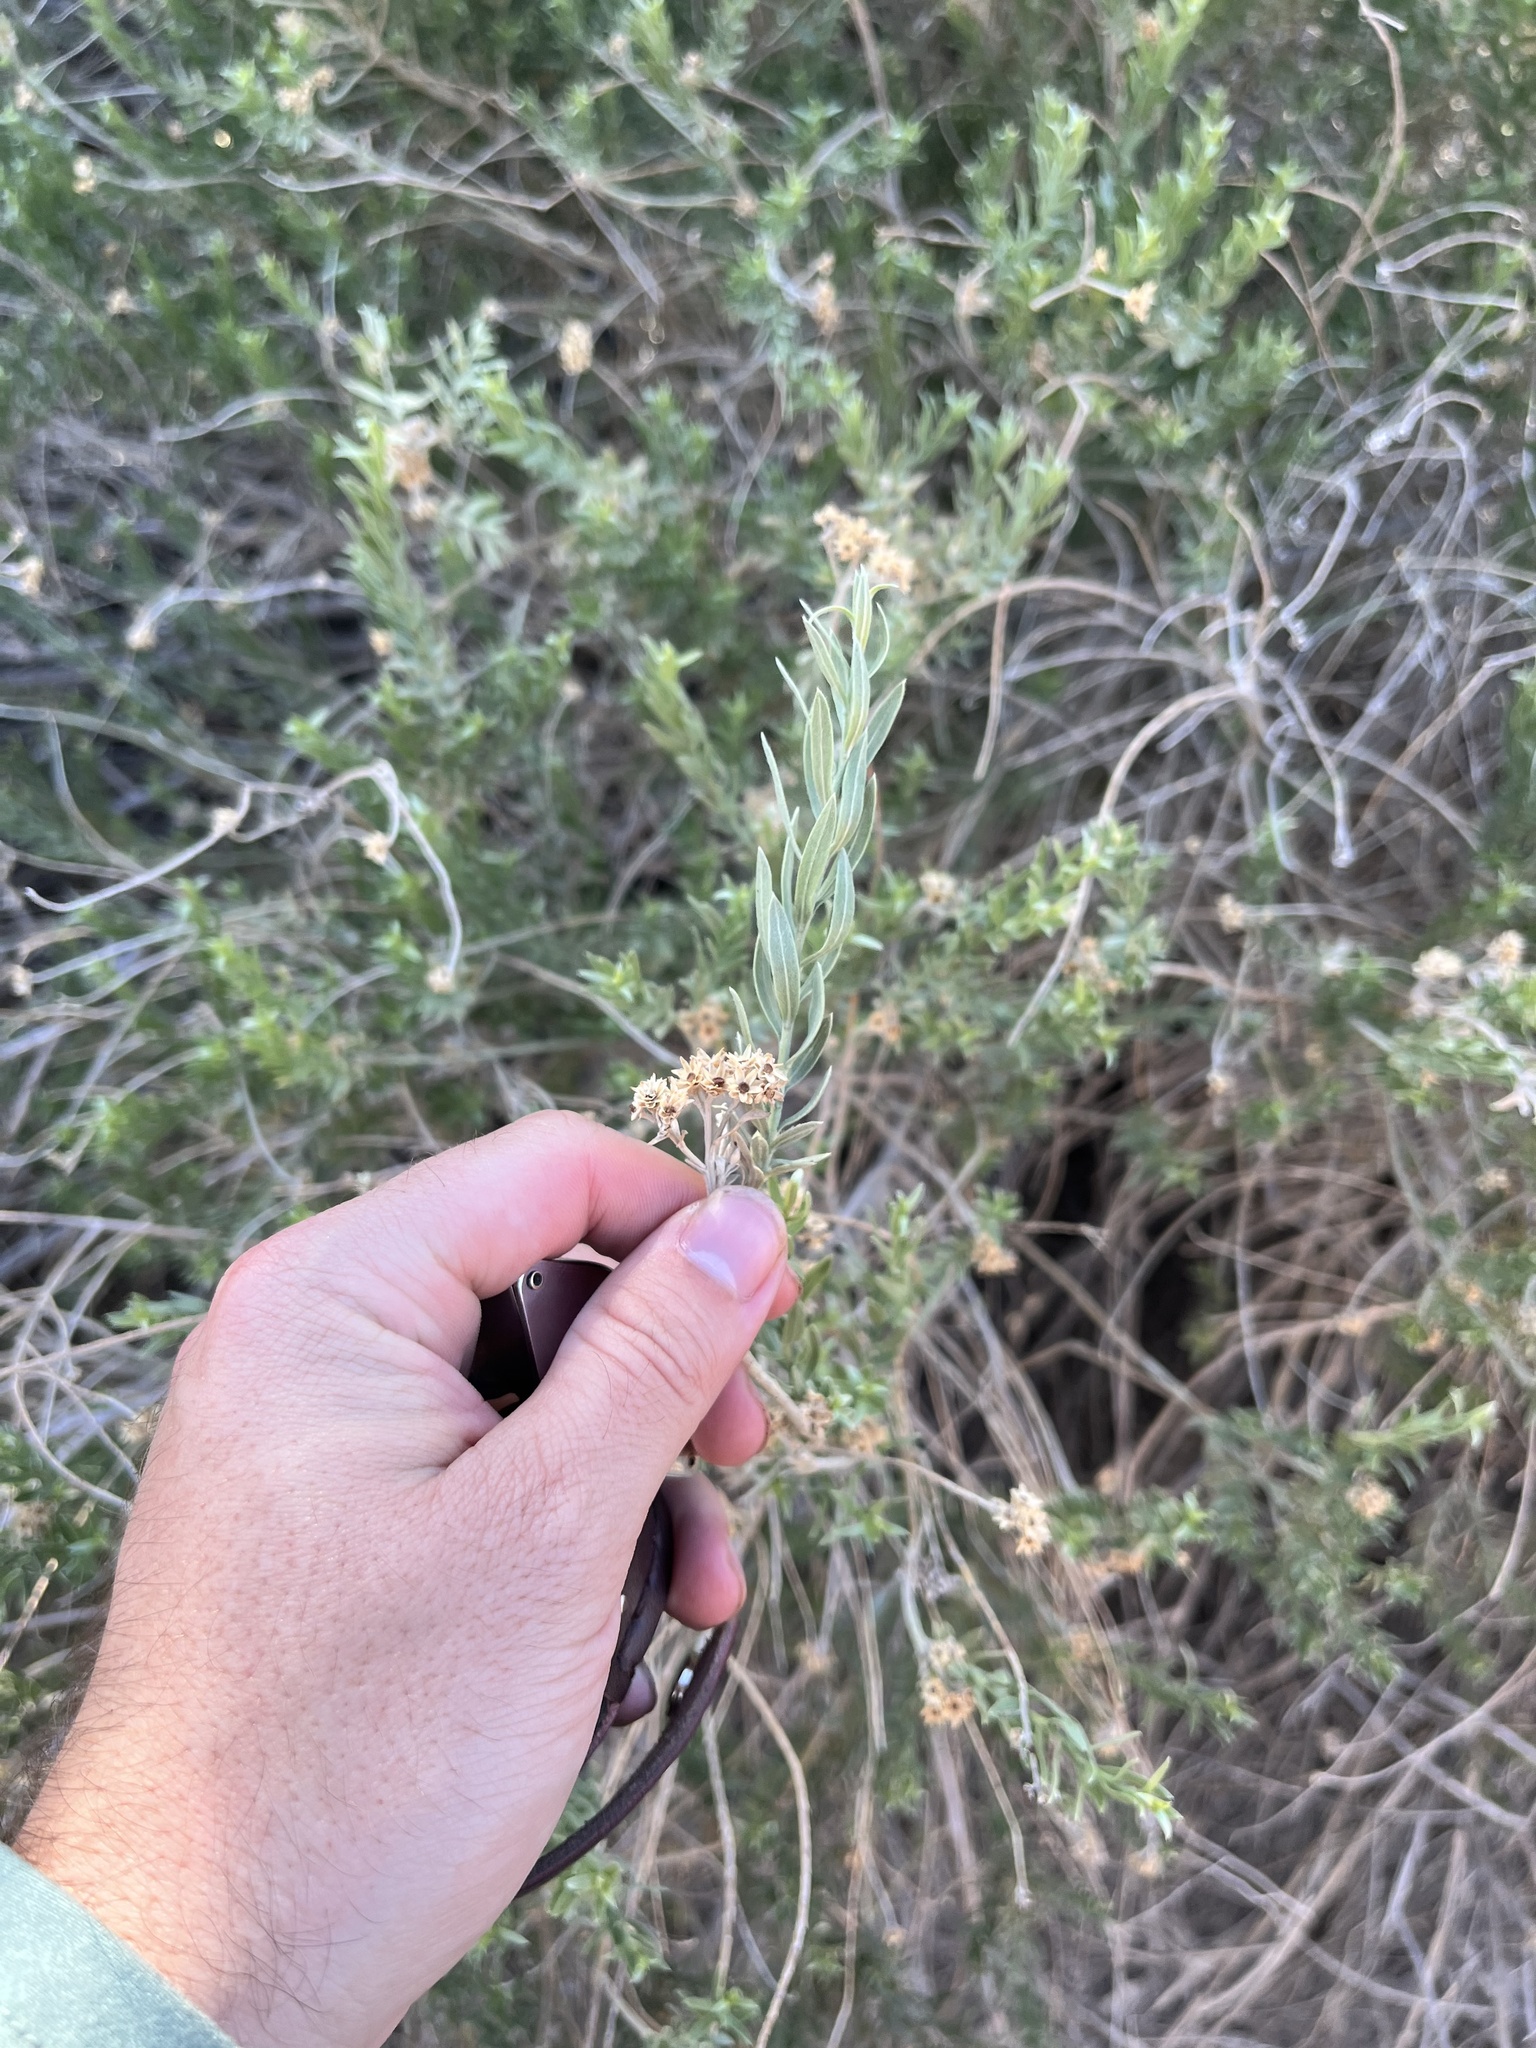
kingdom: Plantae
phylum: Tracheophyta
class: Magnoliopsida
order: Asterales
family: Asteraceae
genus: Pluchea
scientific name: Pluchea sericea
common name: Arrow-weed
